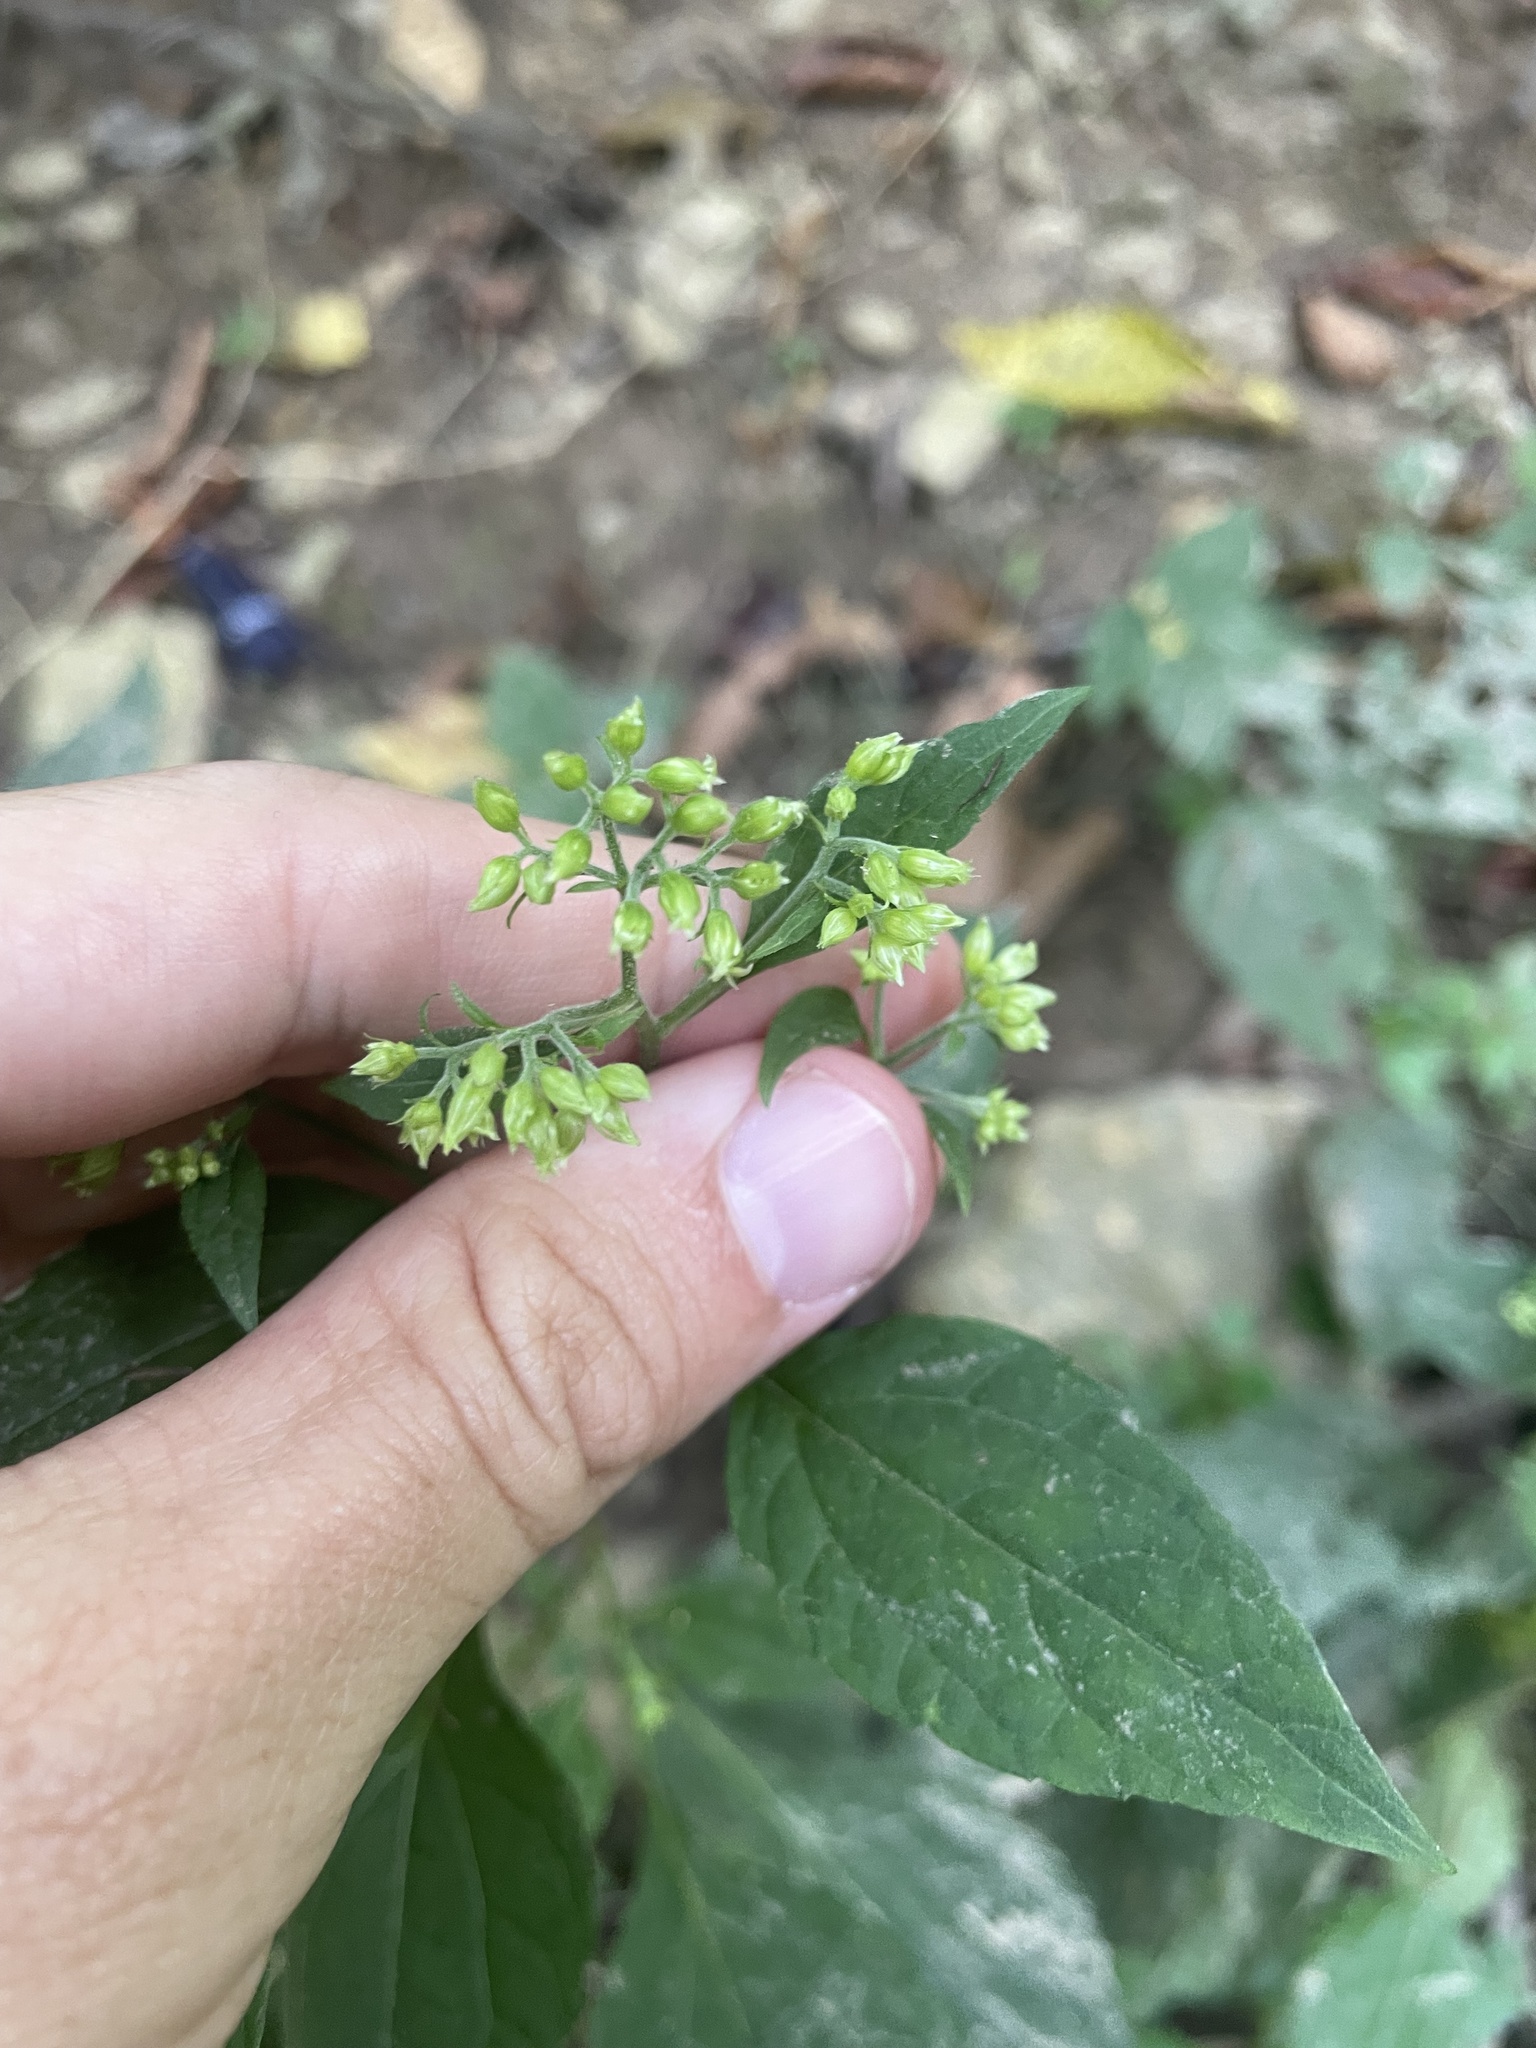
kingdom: Plantae
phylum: Tracheophyta
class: Magnoliopsida
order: Asterales
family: Asteraceae
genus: Ageratina
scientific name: Ageratina altissima
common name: White snakeroot
